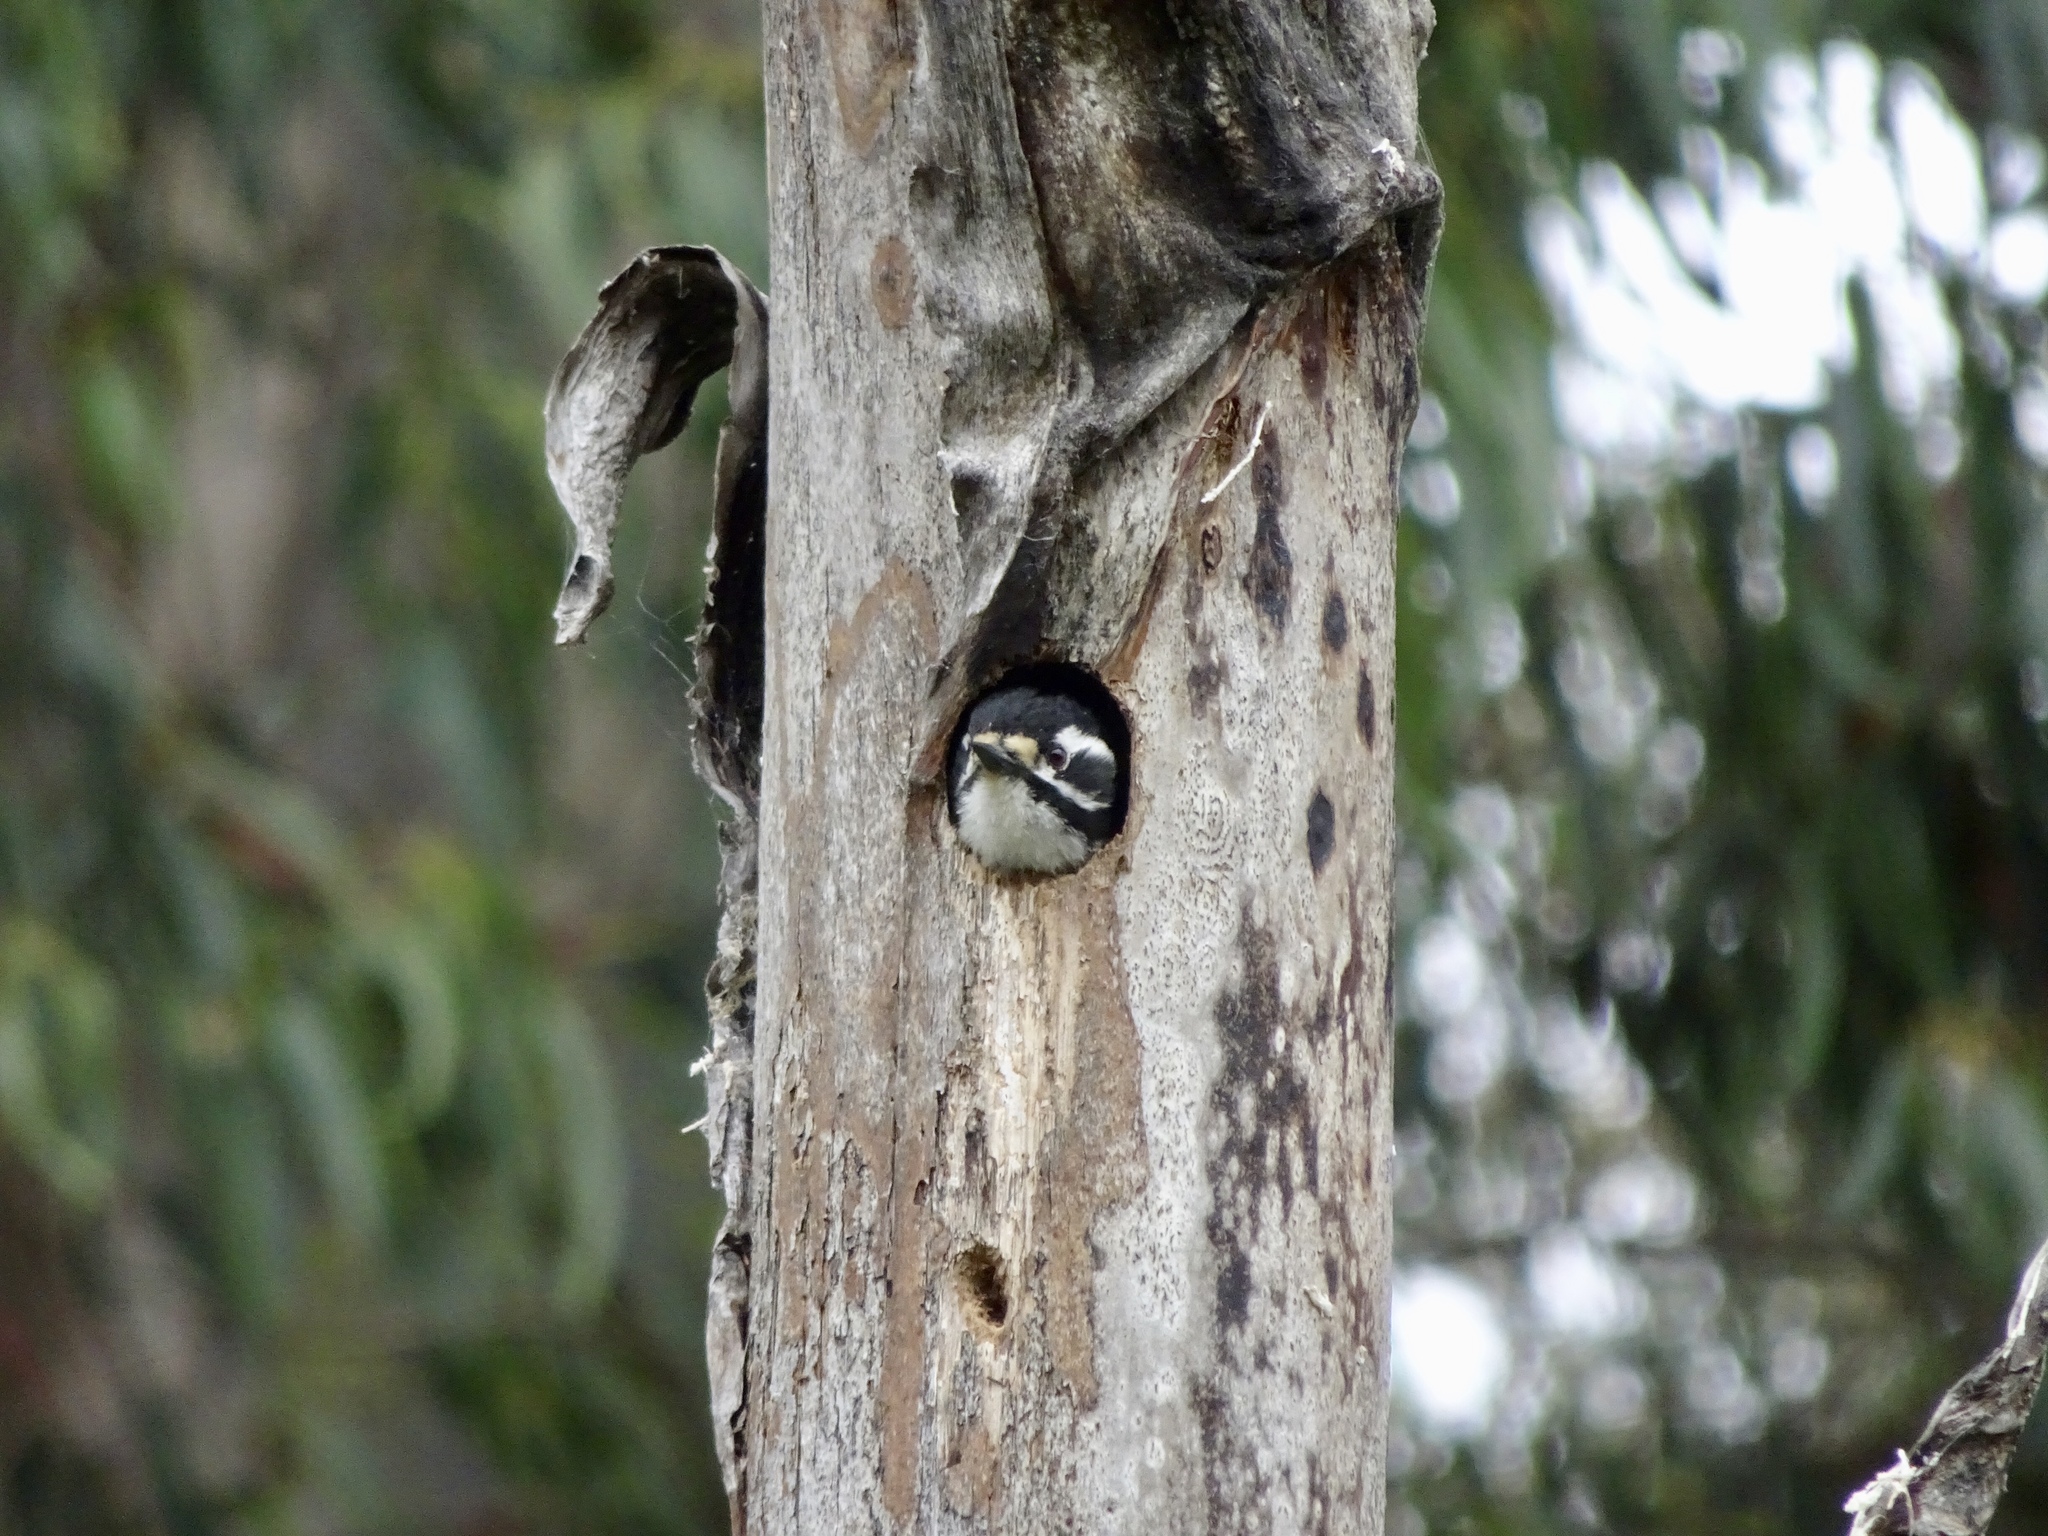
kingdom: Animalia
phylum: Chordata
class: Aves
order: Piciformes
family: Picidae
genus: Dryobates
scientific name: Dryobates nuttallii
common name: Nuttall's woodpecker
